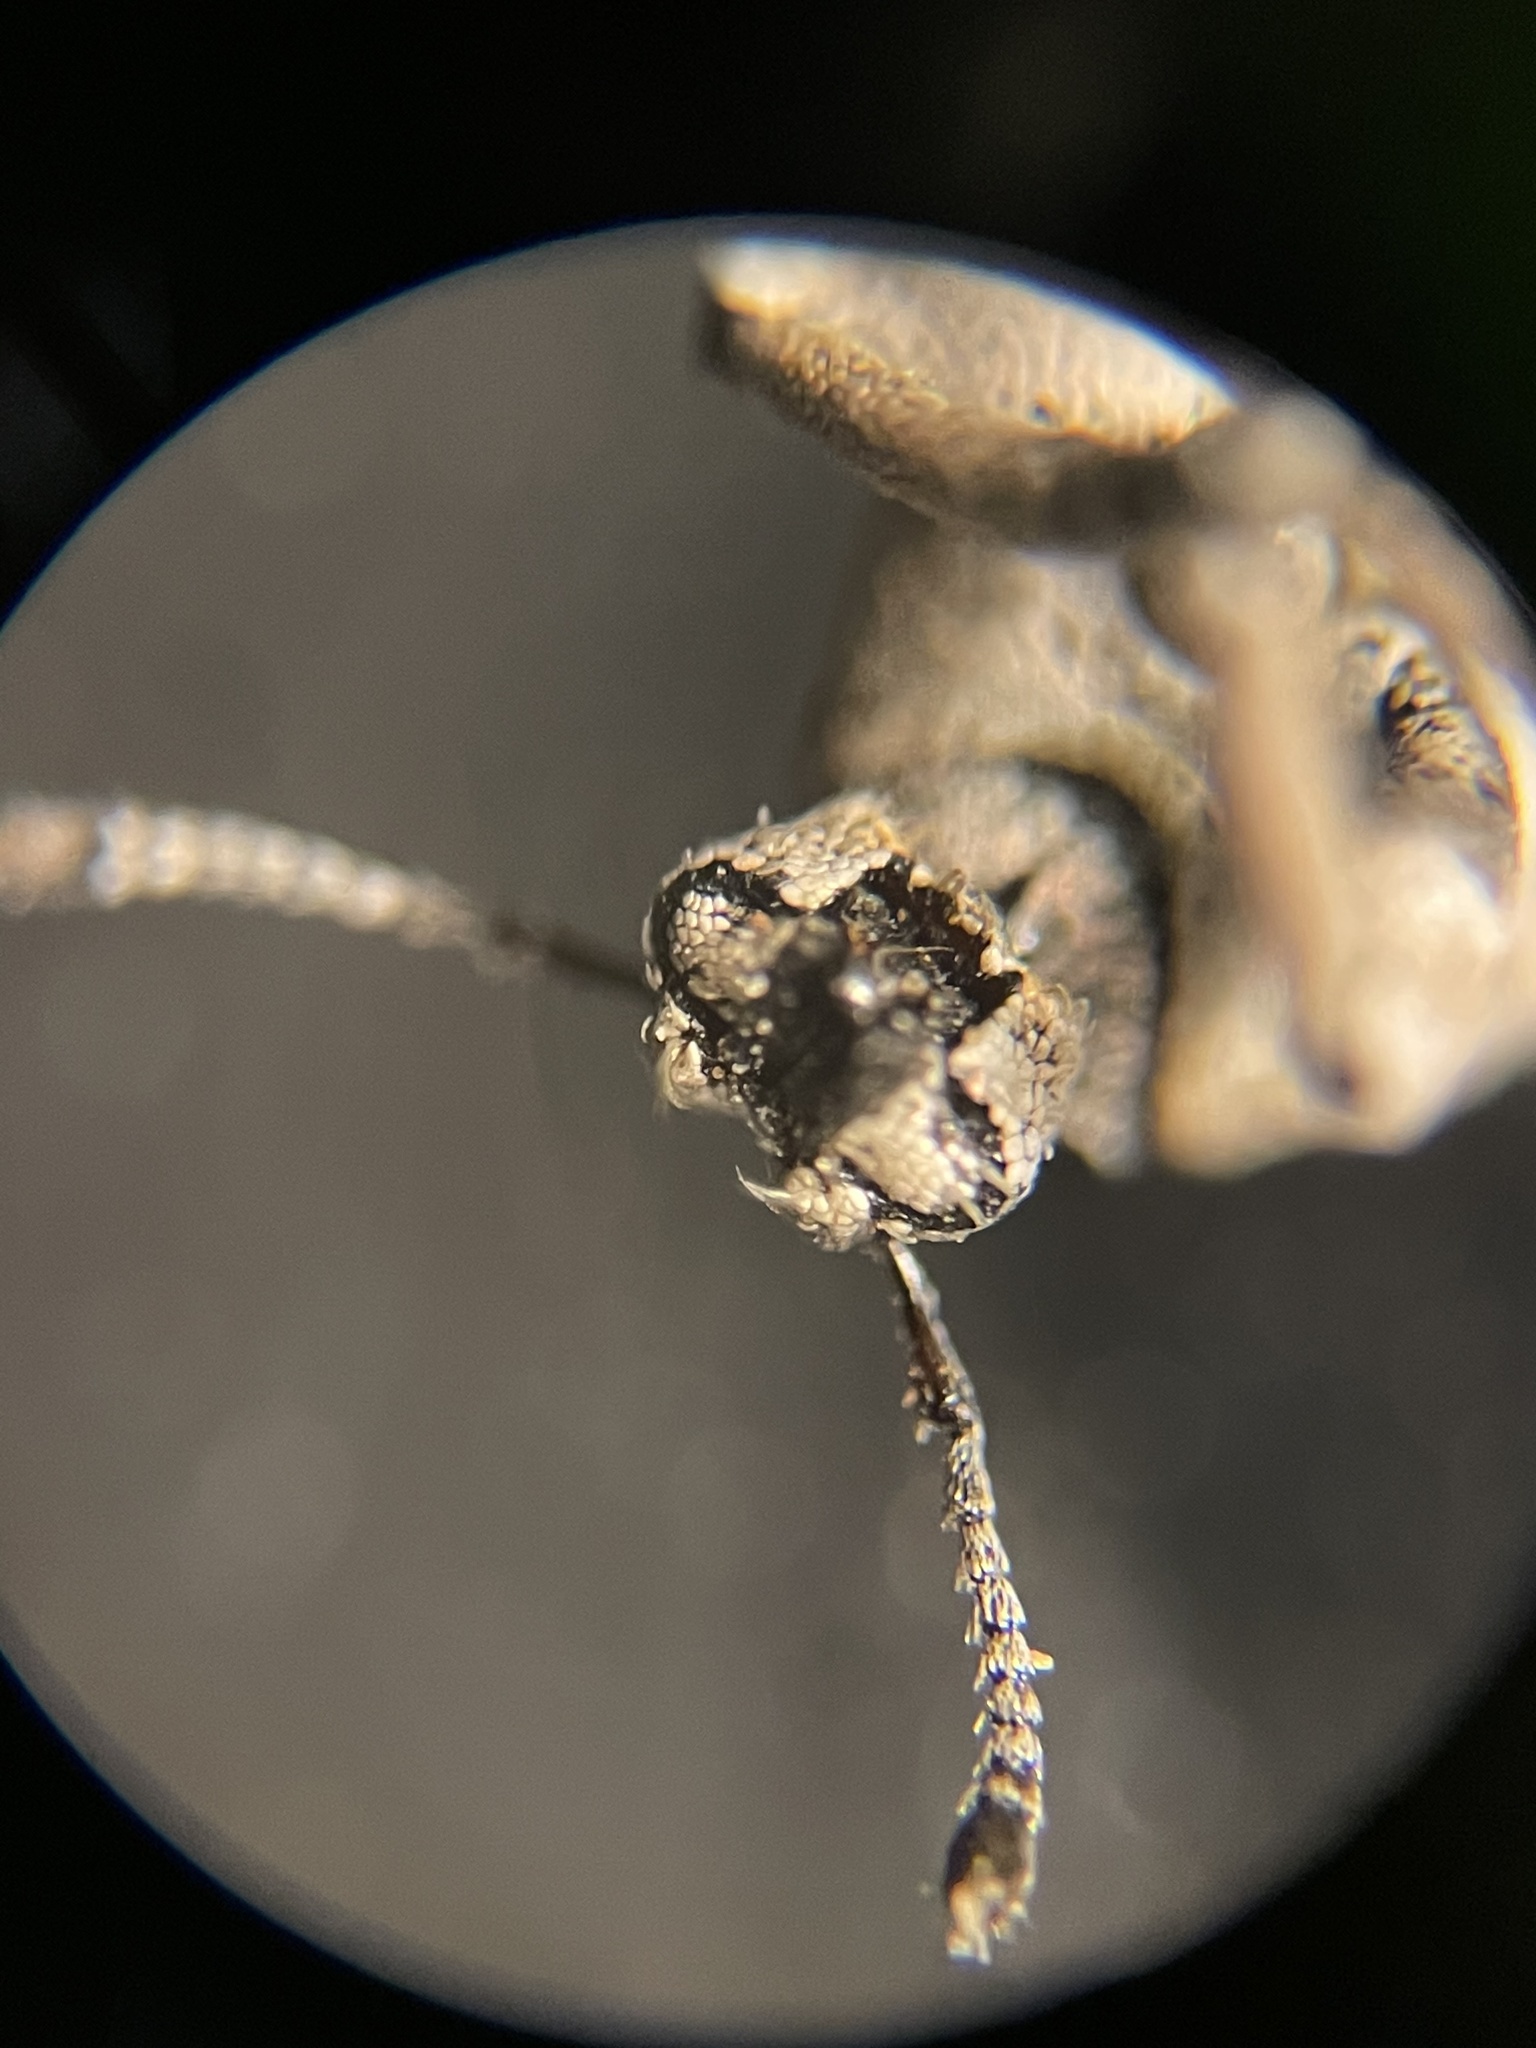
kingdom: Animalia
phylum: Arthropoda
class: Insecta
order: Coleoptera
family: Curculionidae
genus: Colecerus
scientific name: Colecerus marmoratus
